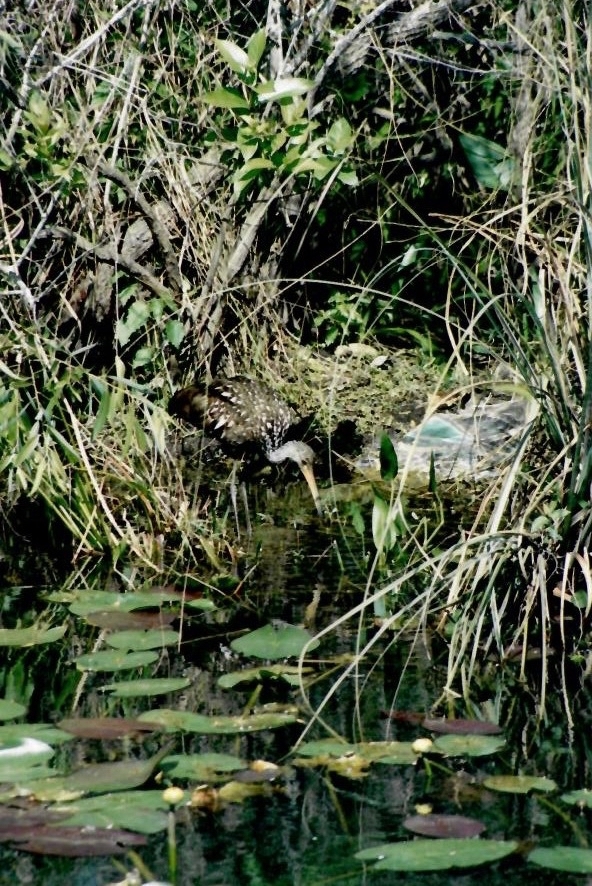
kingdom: Animalia
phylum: Chordata
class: Aves
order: Gruiformes
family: Aramidae
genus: Aramus
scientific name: Aramus guarauna
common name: Limpkin
